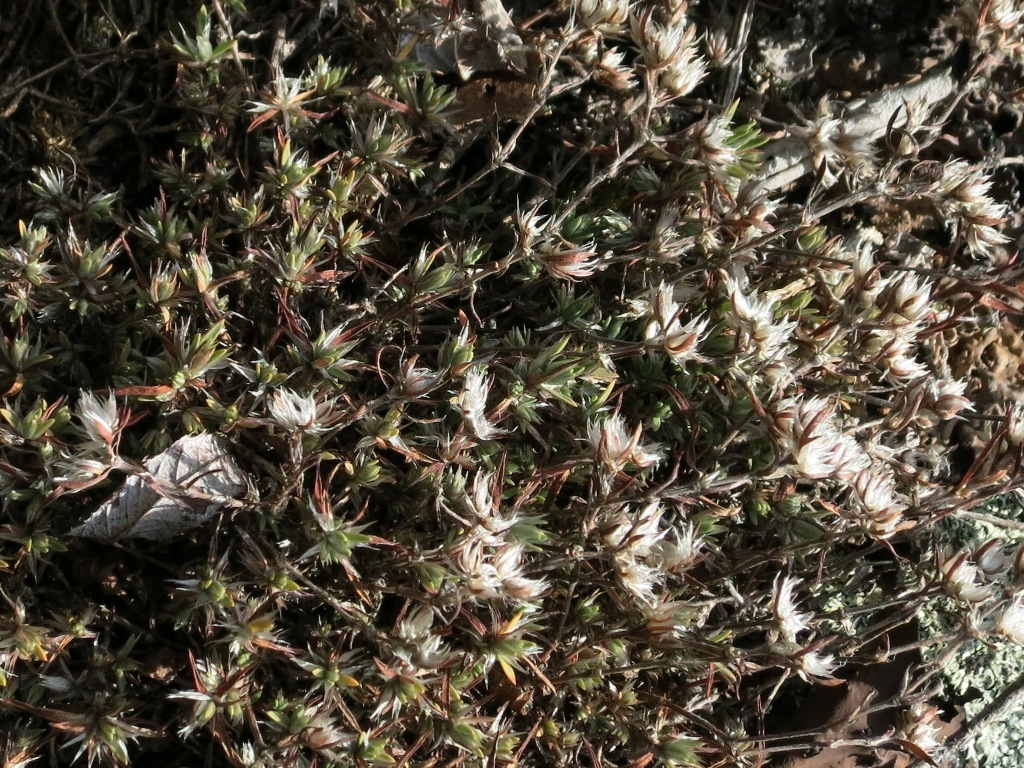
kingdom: Plantae
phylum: Tracheophyta
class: Magnoliopsida
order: Caryophyllales
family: Caryophyllaceae
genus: Paronychia
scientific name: Paronychia argyrocoma
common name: Silverling
